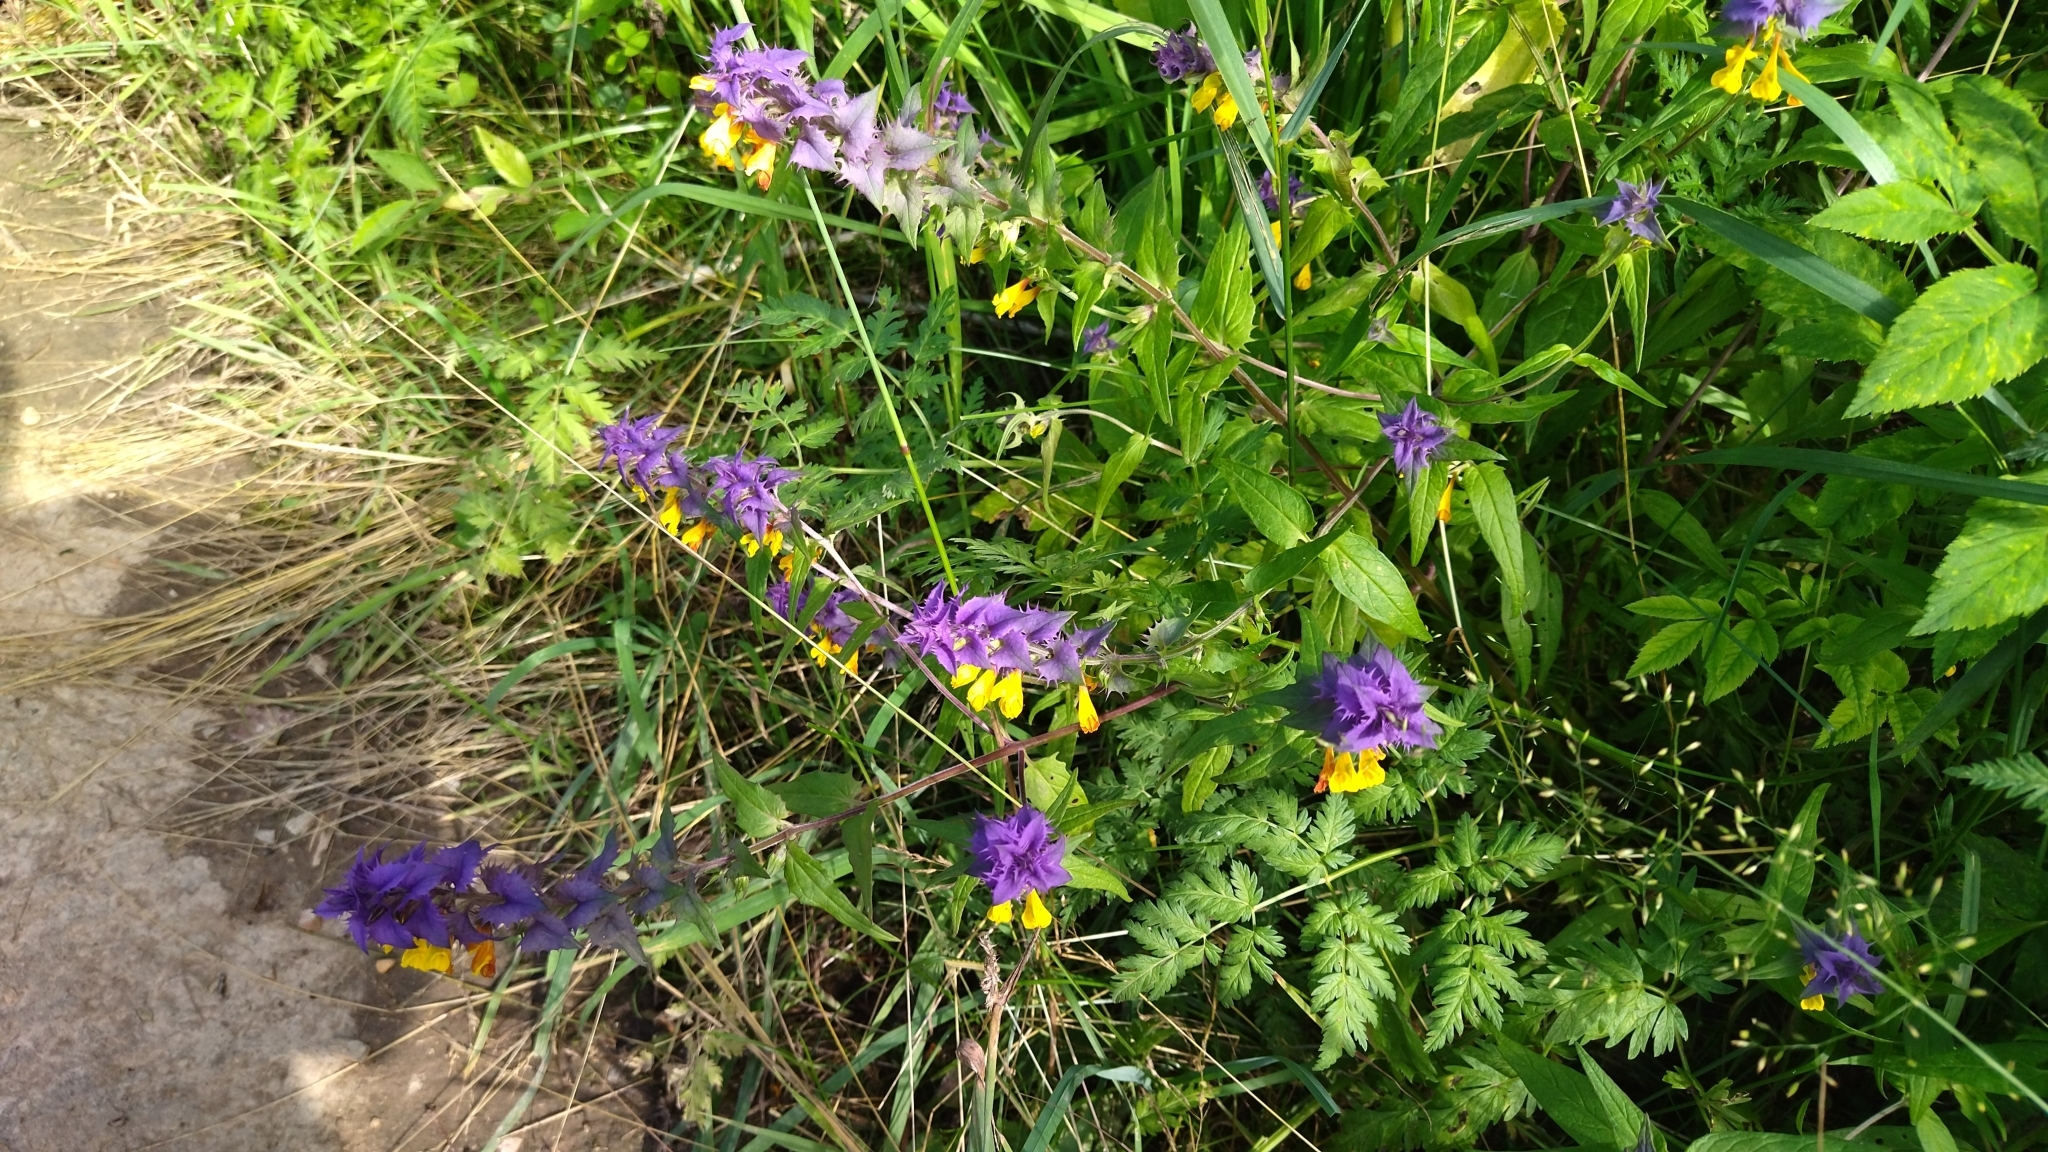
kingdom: Plantae
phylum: Tracheophyta
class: Magnoliopsida
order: Lamiales
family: Orobanchaceae
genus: Melampyrum
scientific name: Melampyrum nemorosum
